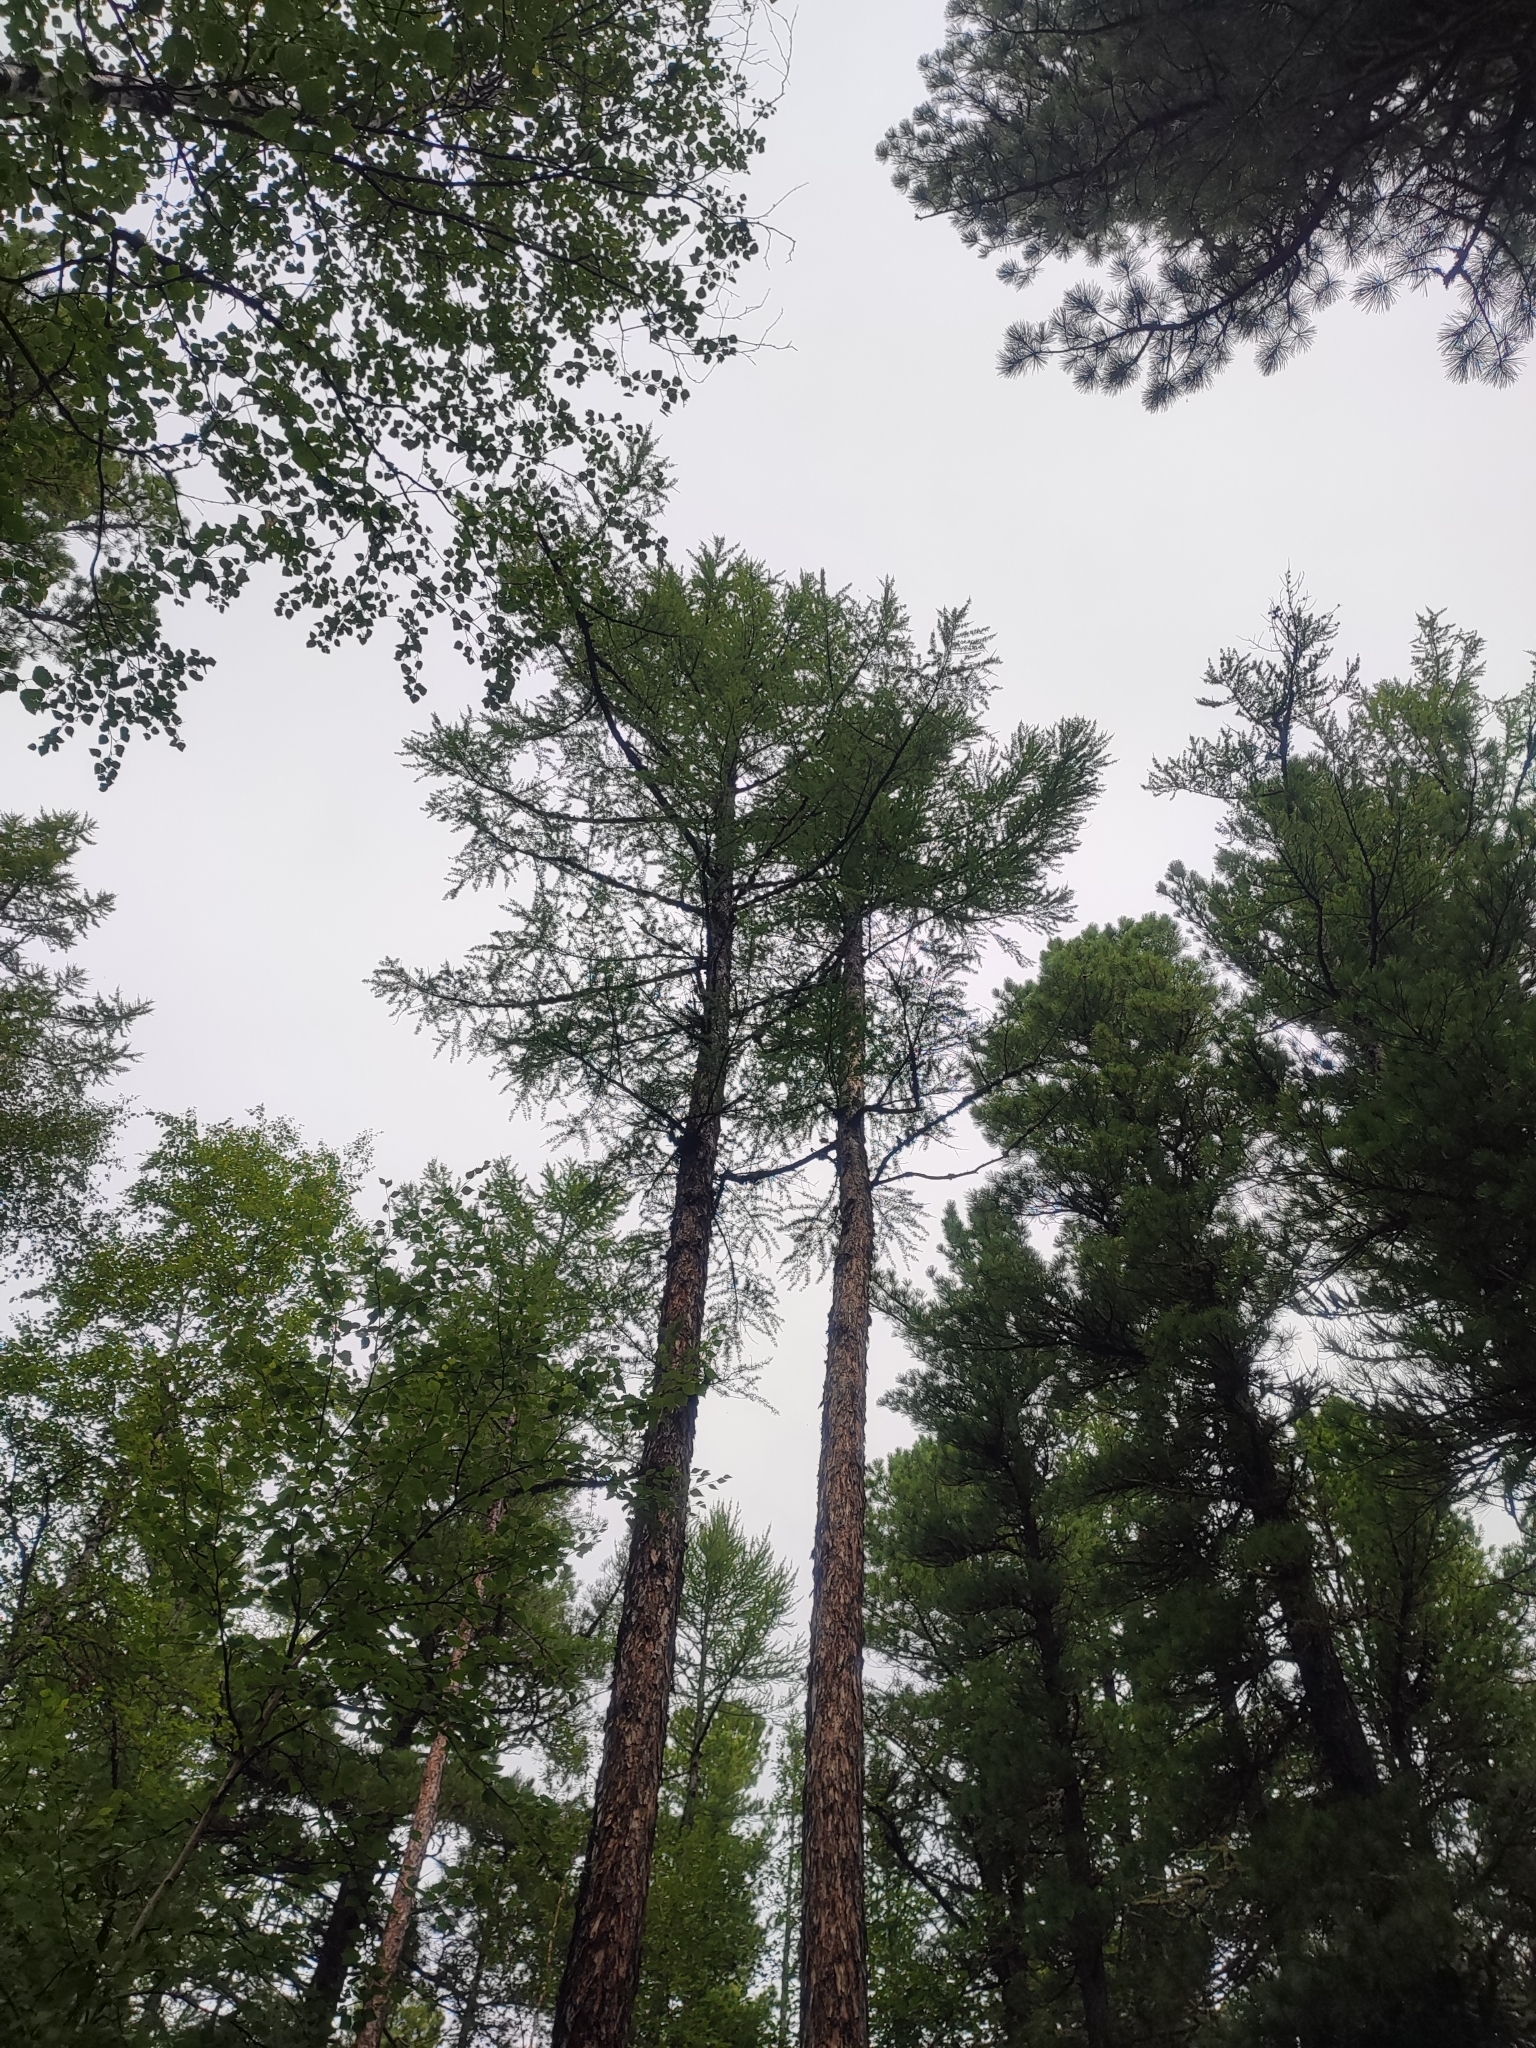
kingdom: Plantae
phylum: Tracheophyta
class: Pinopsida
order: Pinales
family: Pinaceae
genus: Larix
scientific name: Larix sibirica
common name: Siberian larch
